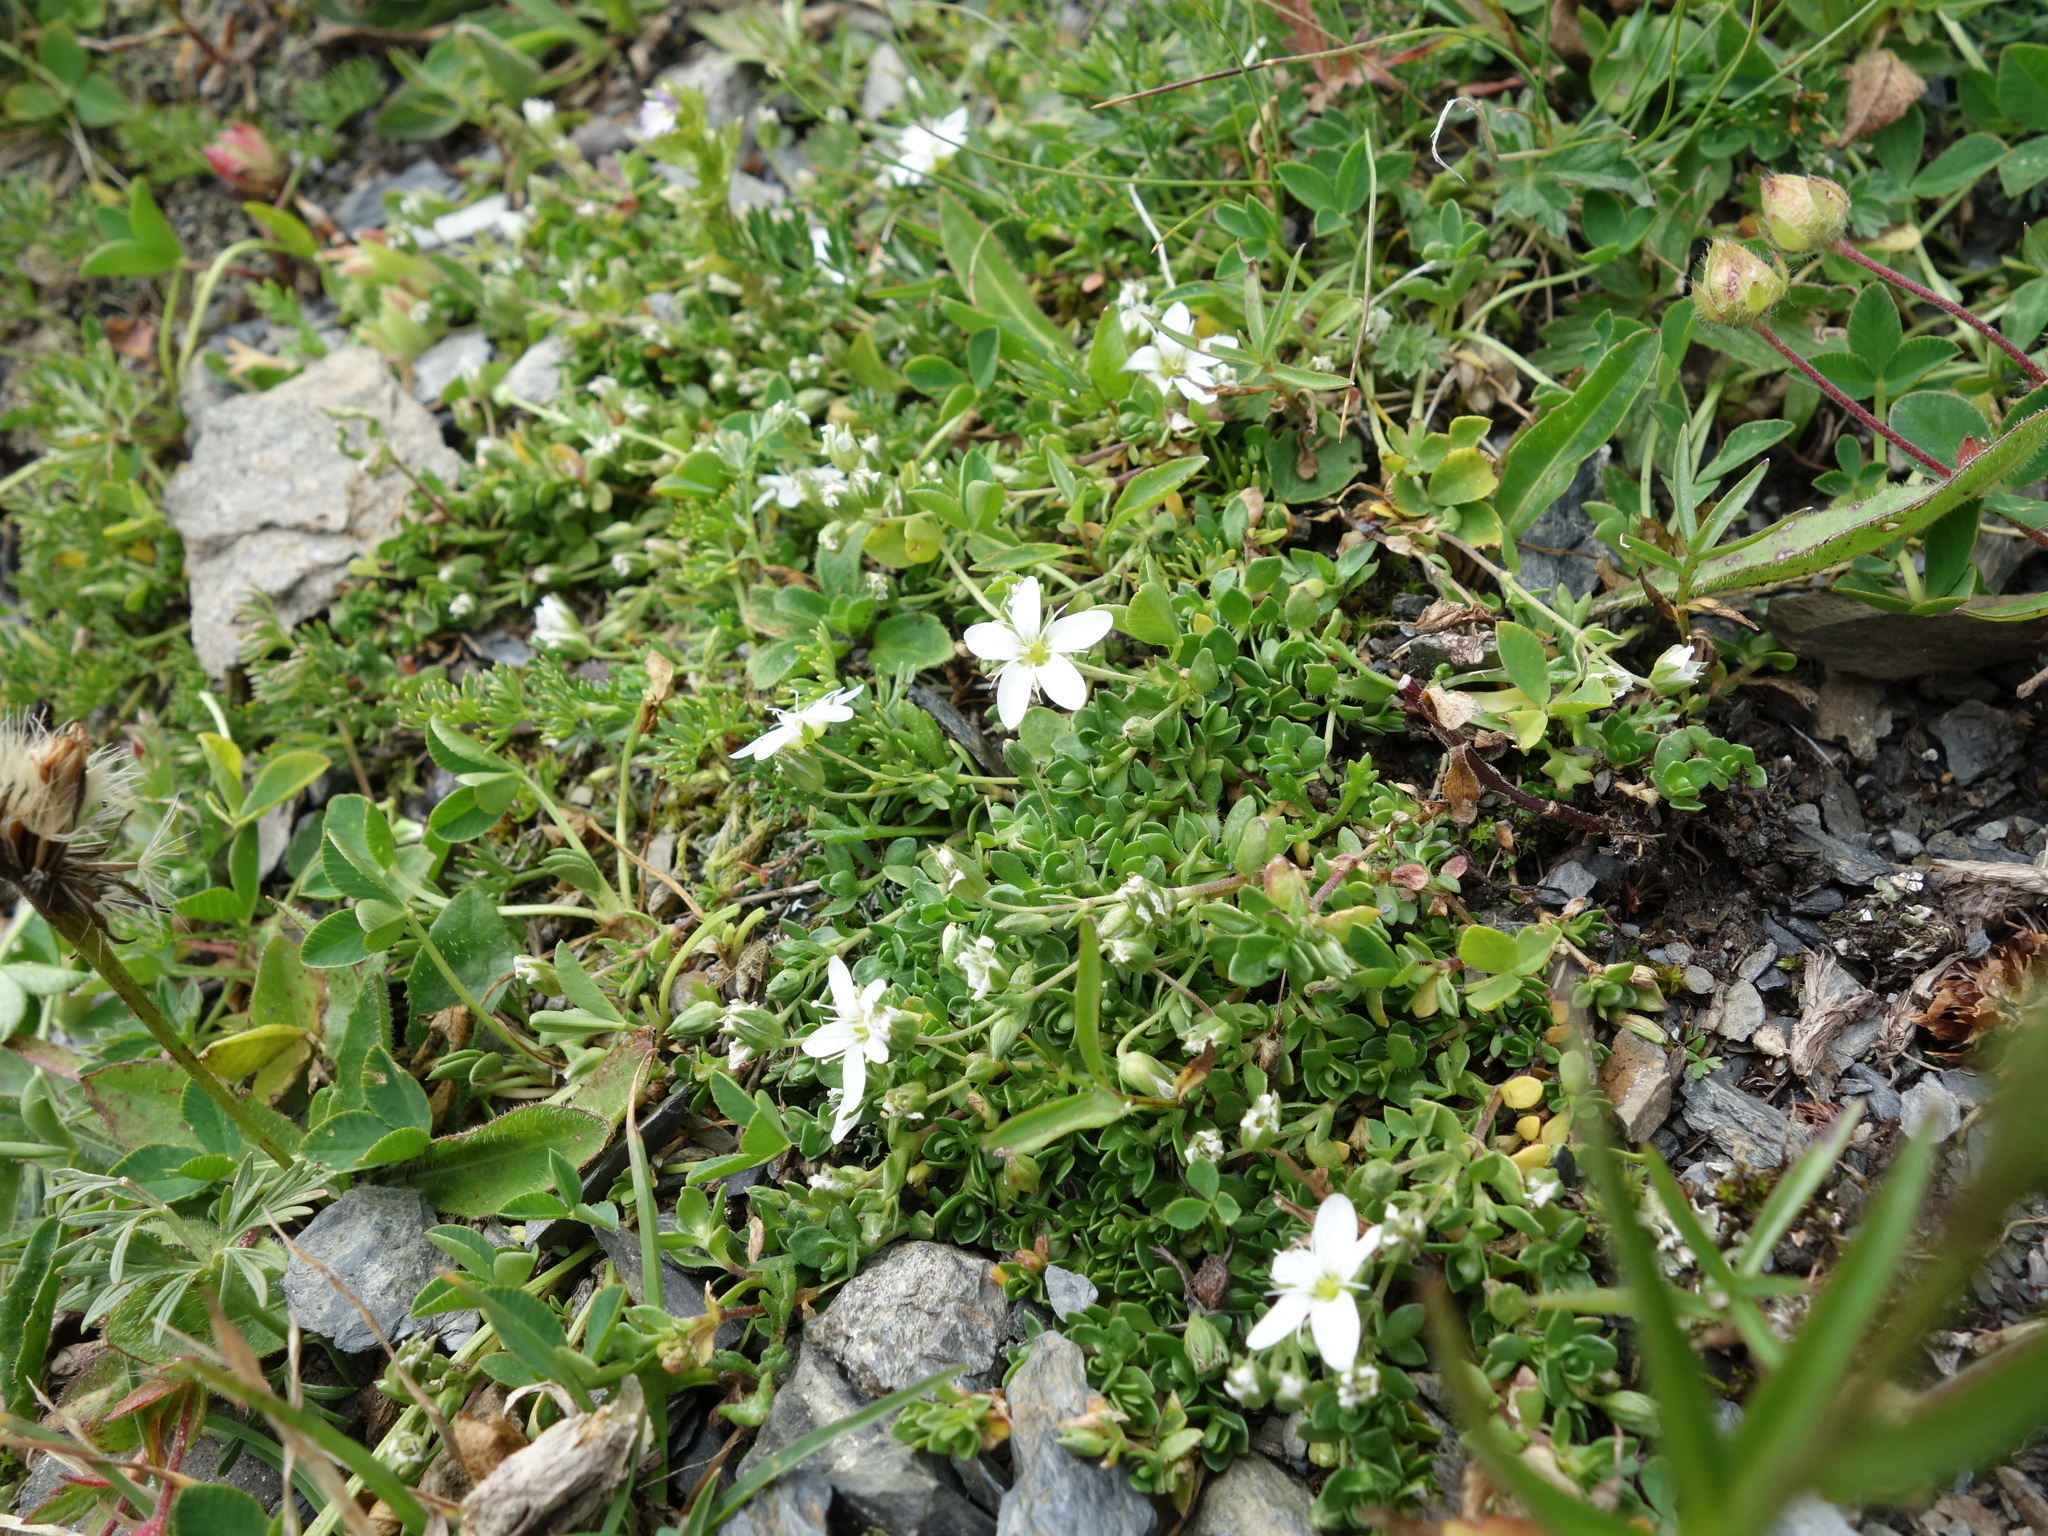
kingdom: Plantae
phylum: Tracheophyta
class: Magnoliopsida
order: Caryophyllales
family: Caryophyllaceae
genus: Arenaria
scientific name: Arenaria ciliata
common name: Fringed sandwort
